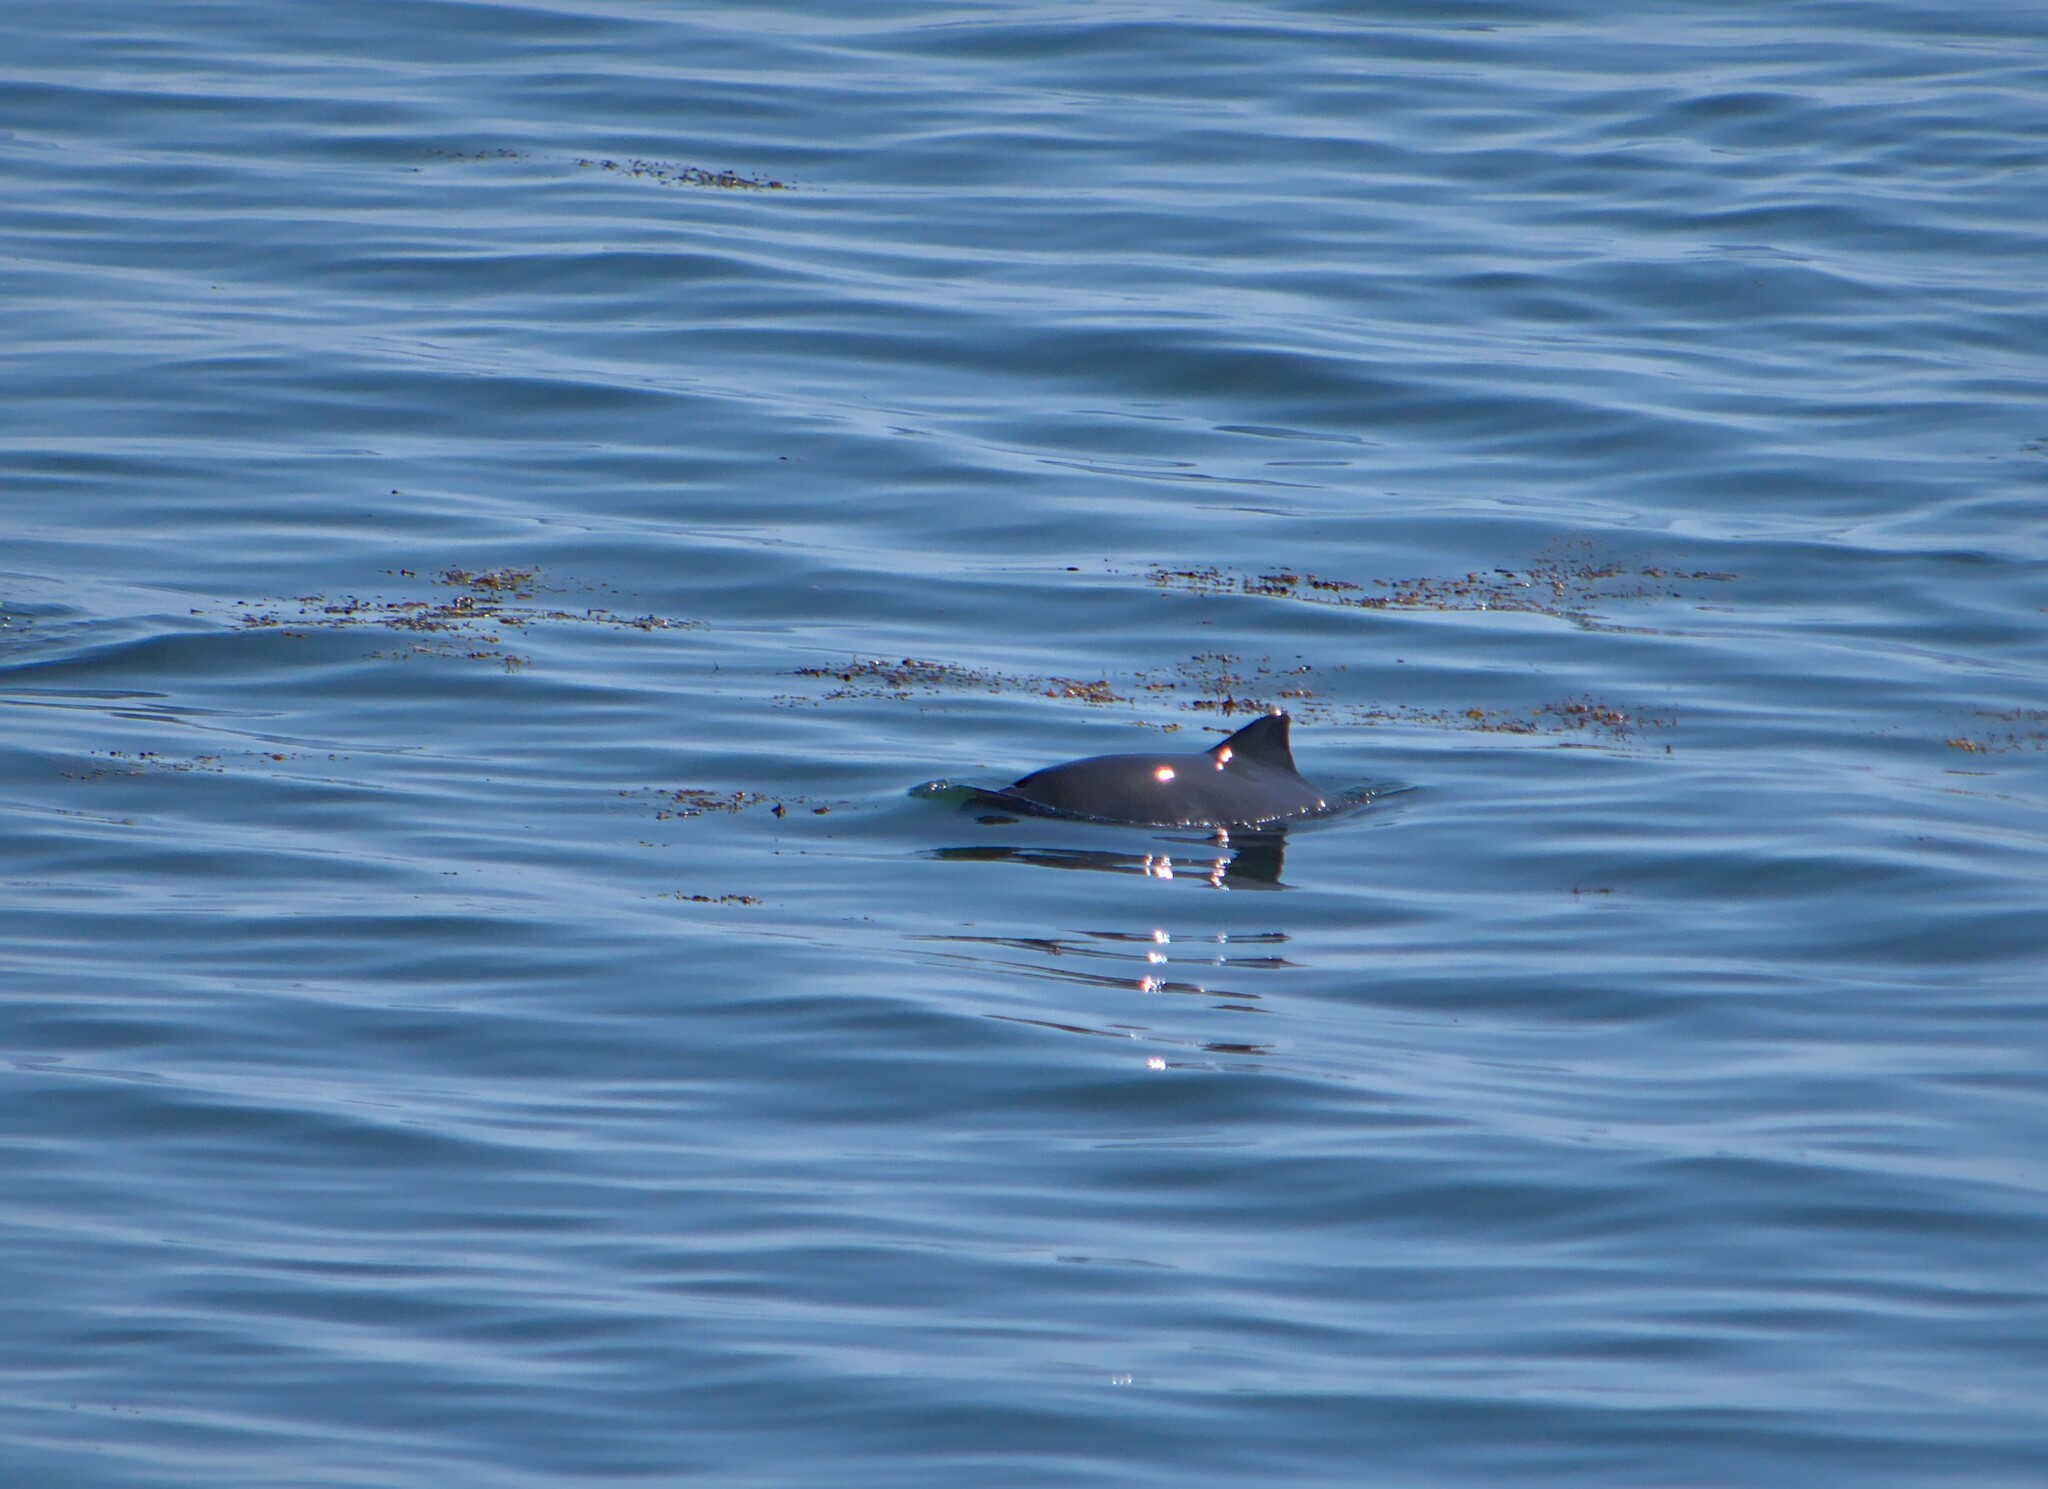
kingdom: Animalia
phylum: Chordata
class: Mammalia
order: Cetacea
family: Phocoenidae
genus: Phocoena
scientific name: Phocoena phocoena
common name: Harbor porpoise
